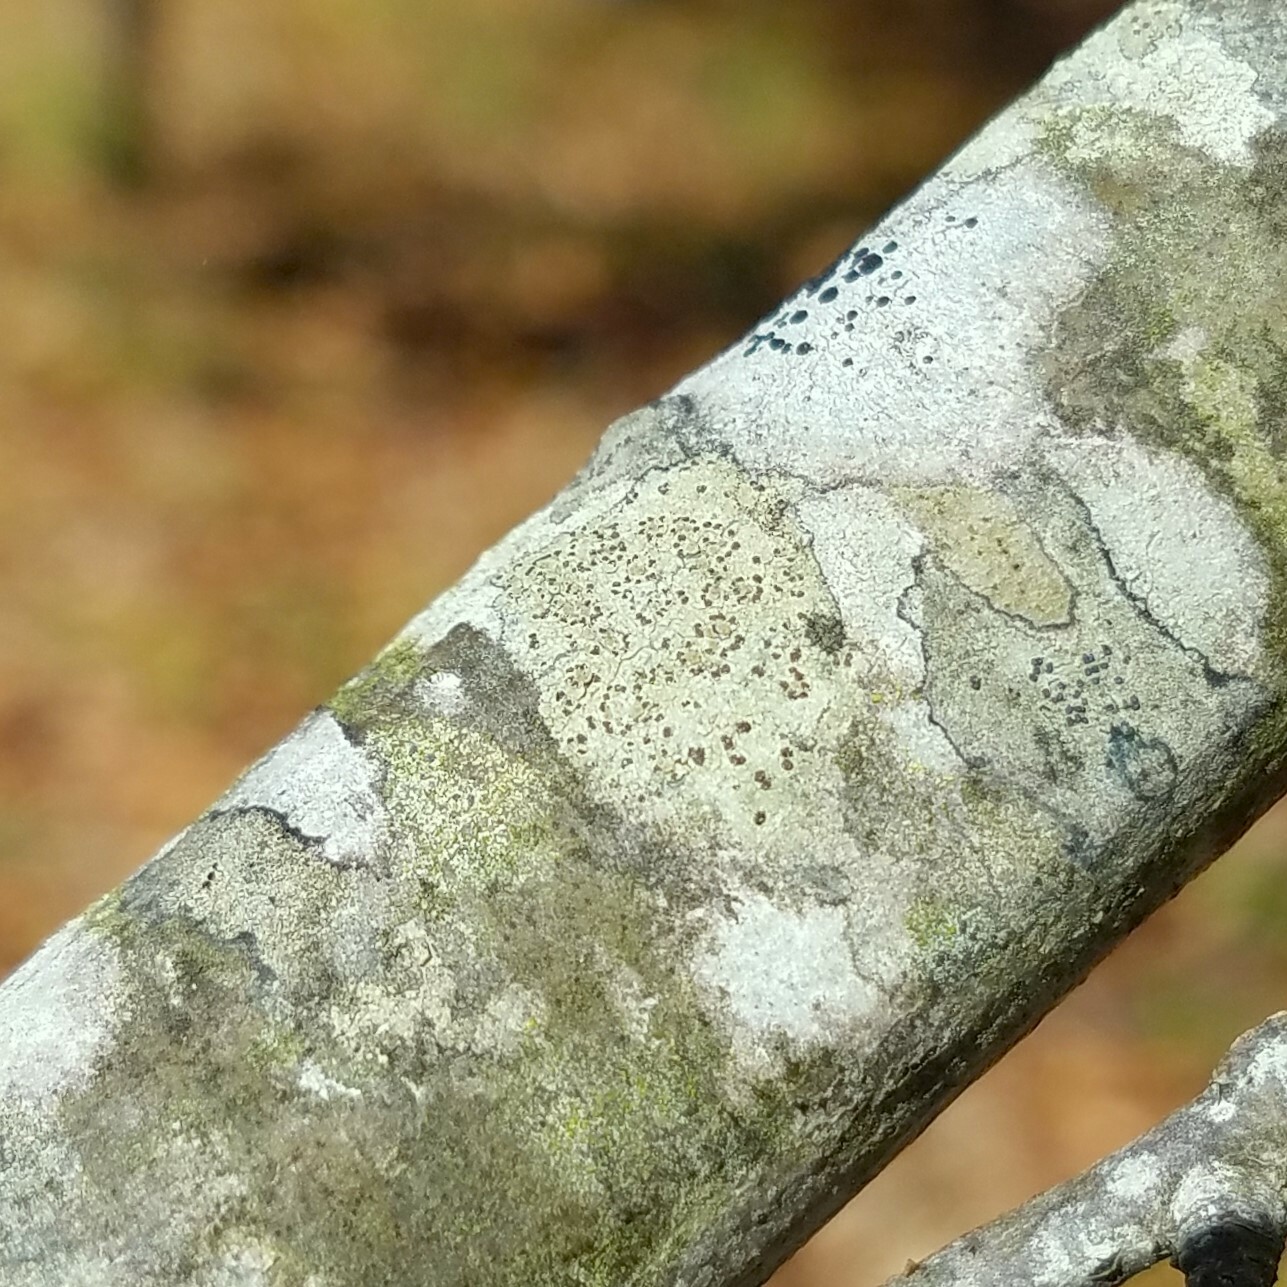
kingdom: Fungi
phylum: Ascomycota
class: Lecanoromycetes
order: Lecanorales
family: Lecanoraceae
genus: Traponora
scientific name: Traponora varians
